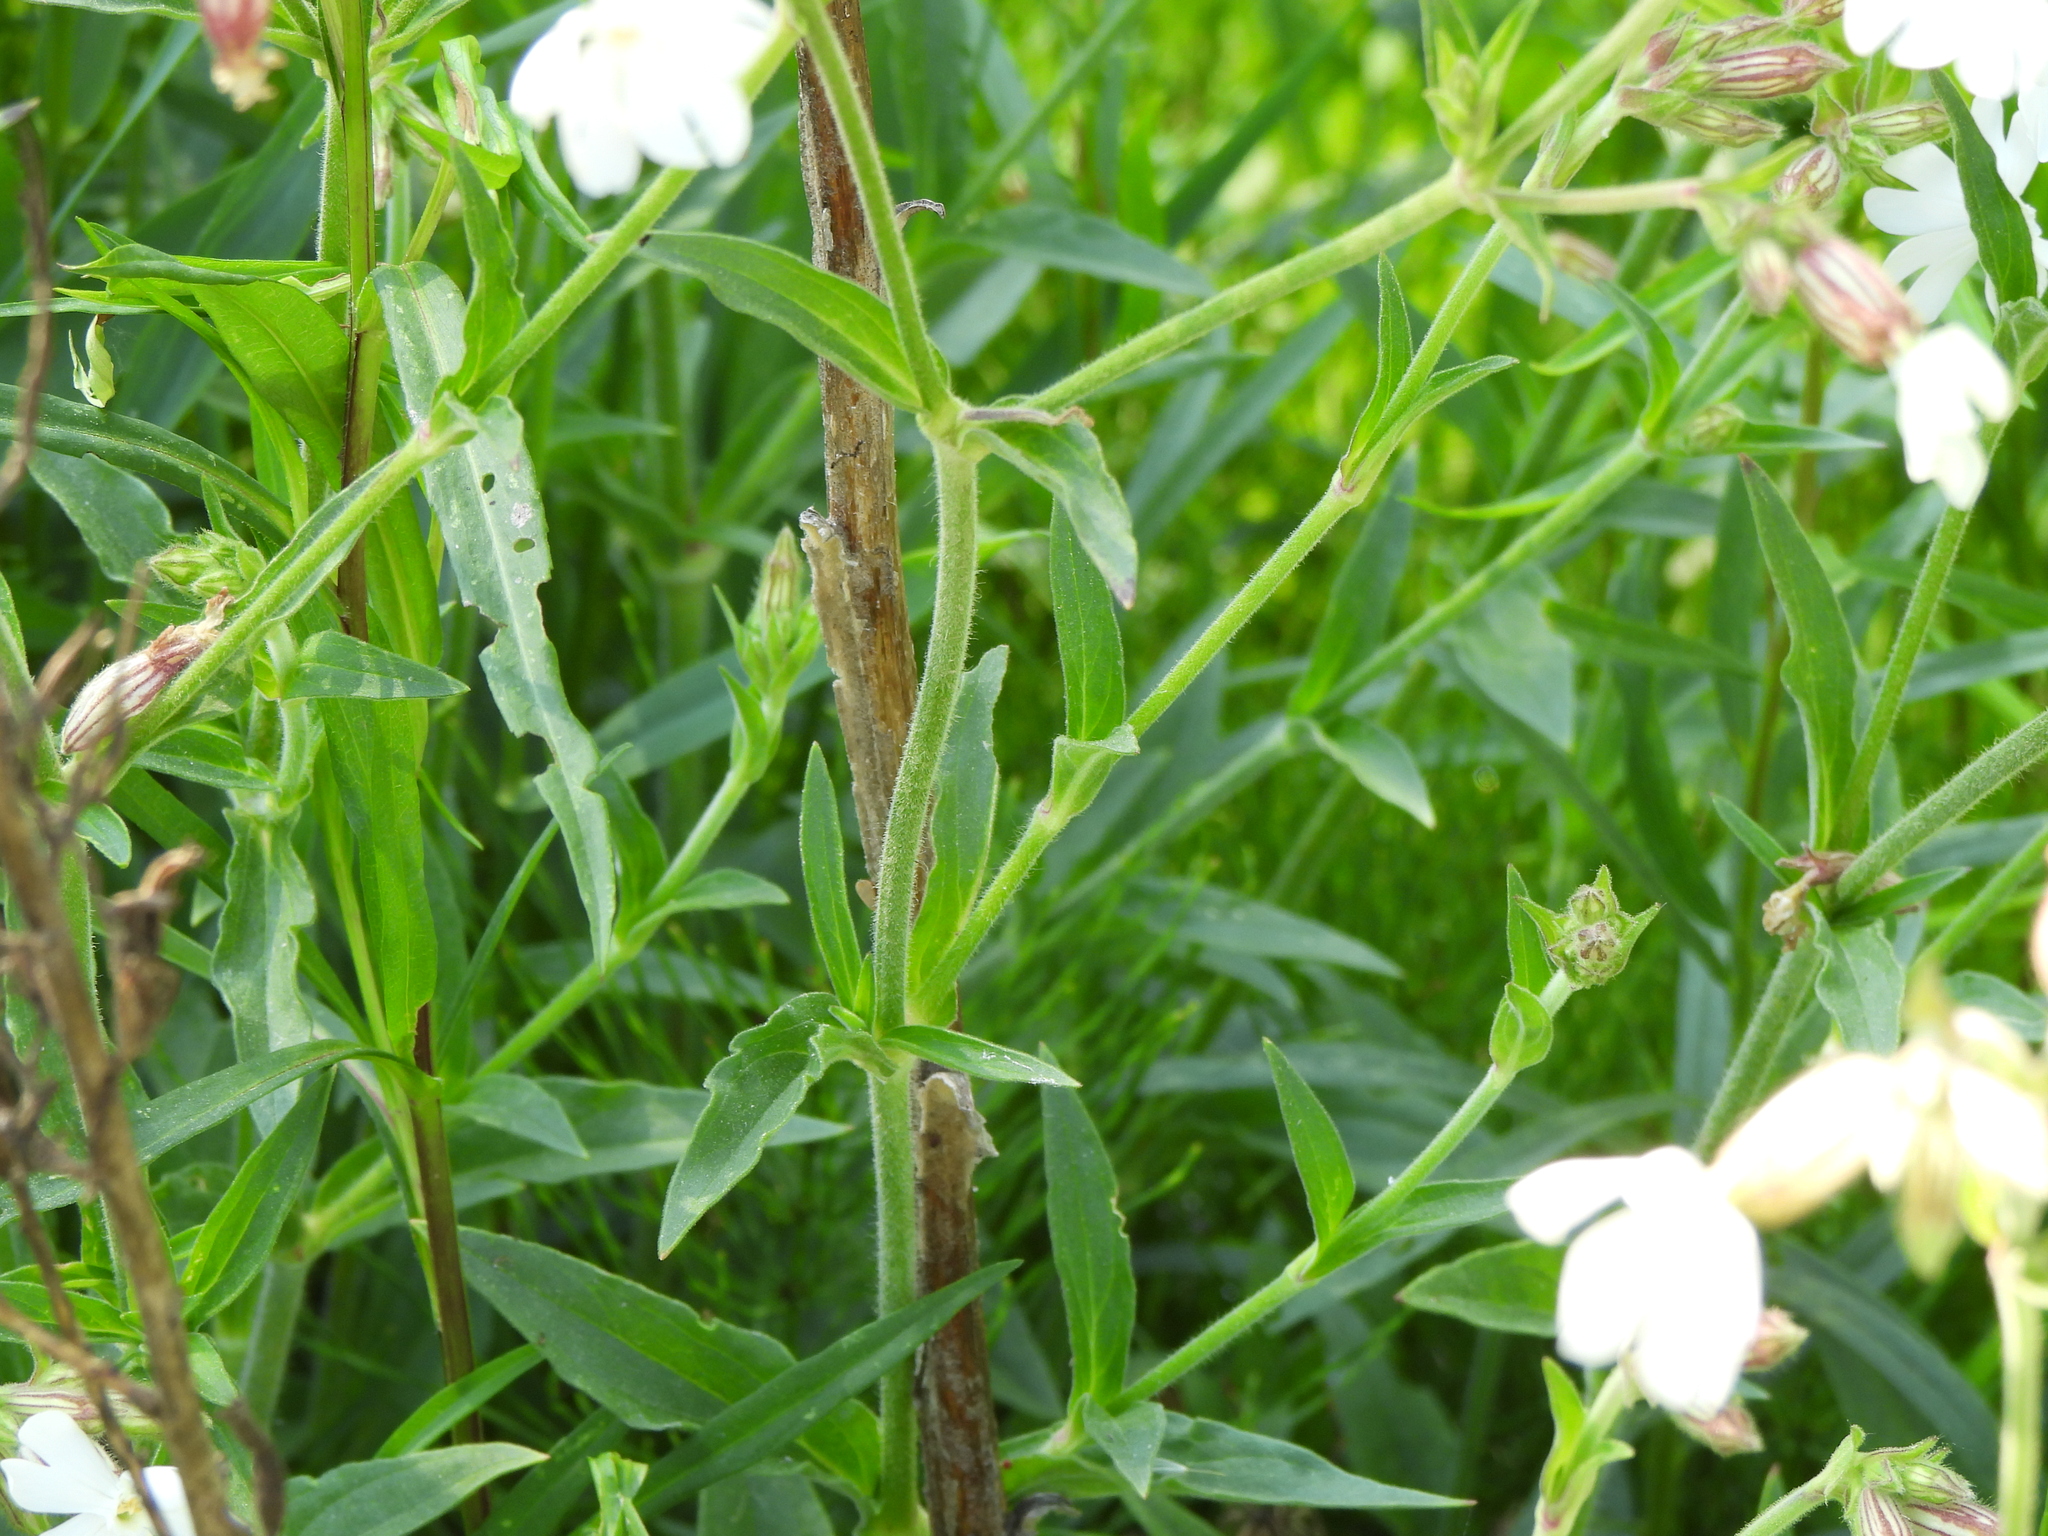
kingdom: Plantae
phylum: Tracheophyta
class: Magnoliopsida
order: Caryophyllales
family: Caryophyllaceae
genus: Silene
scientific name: Silene latifolia
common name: White campion
